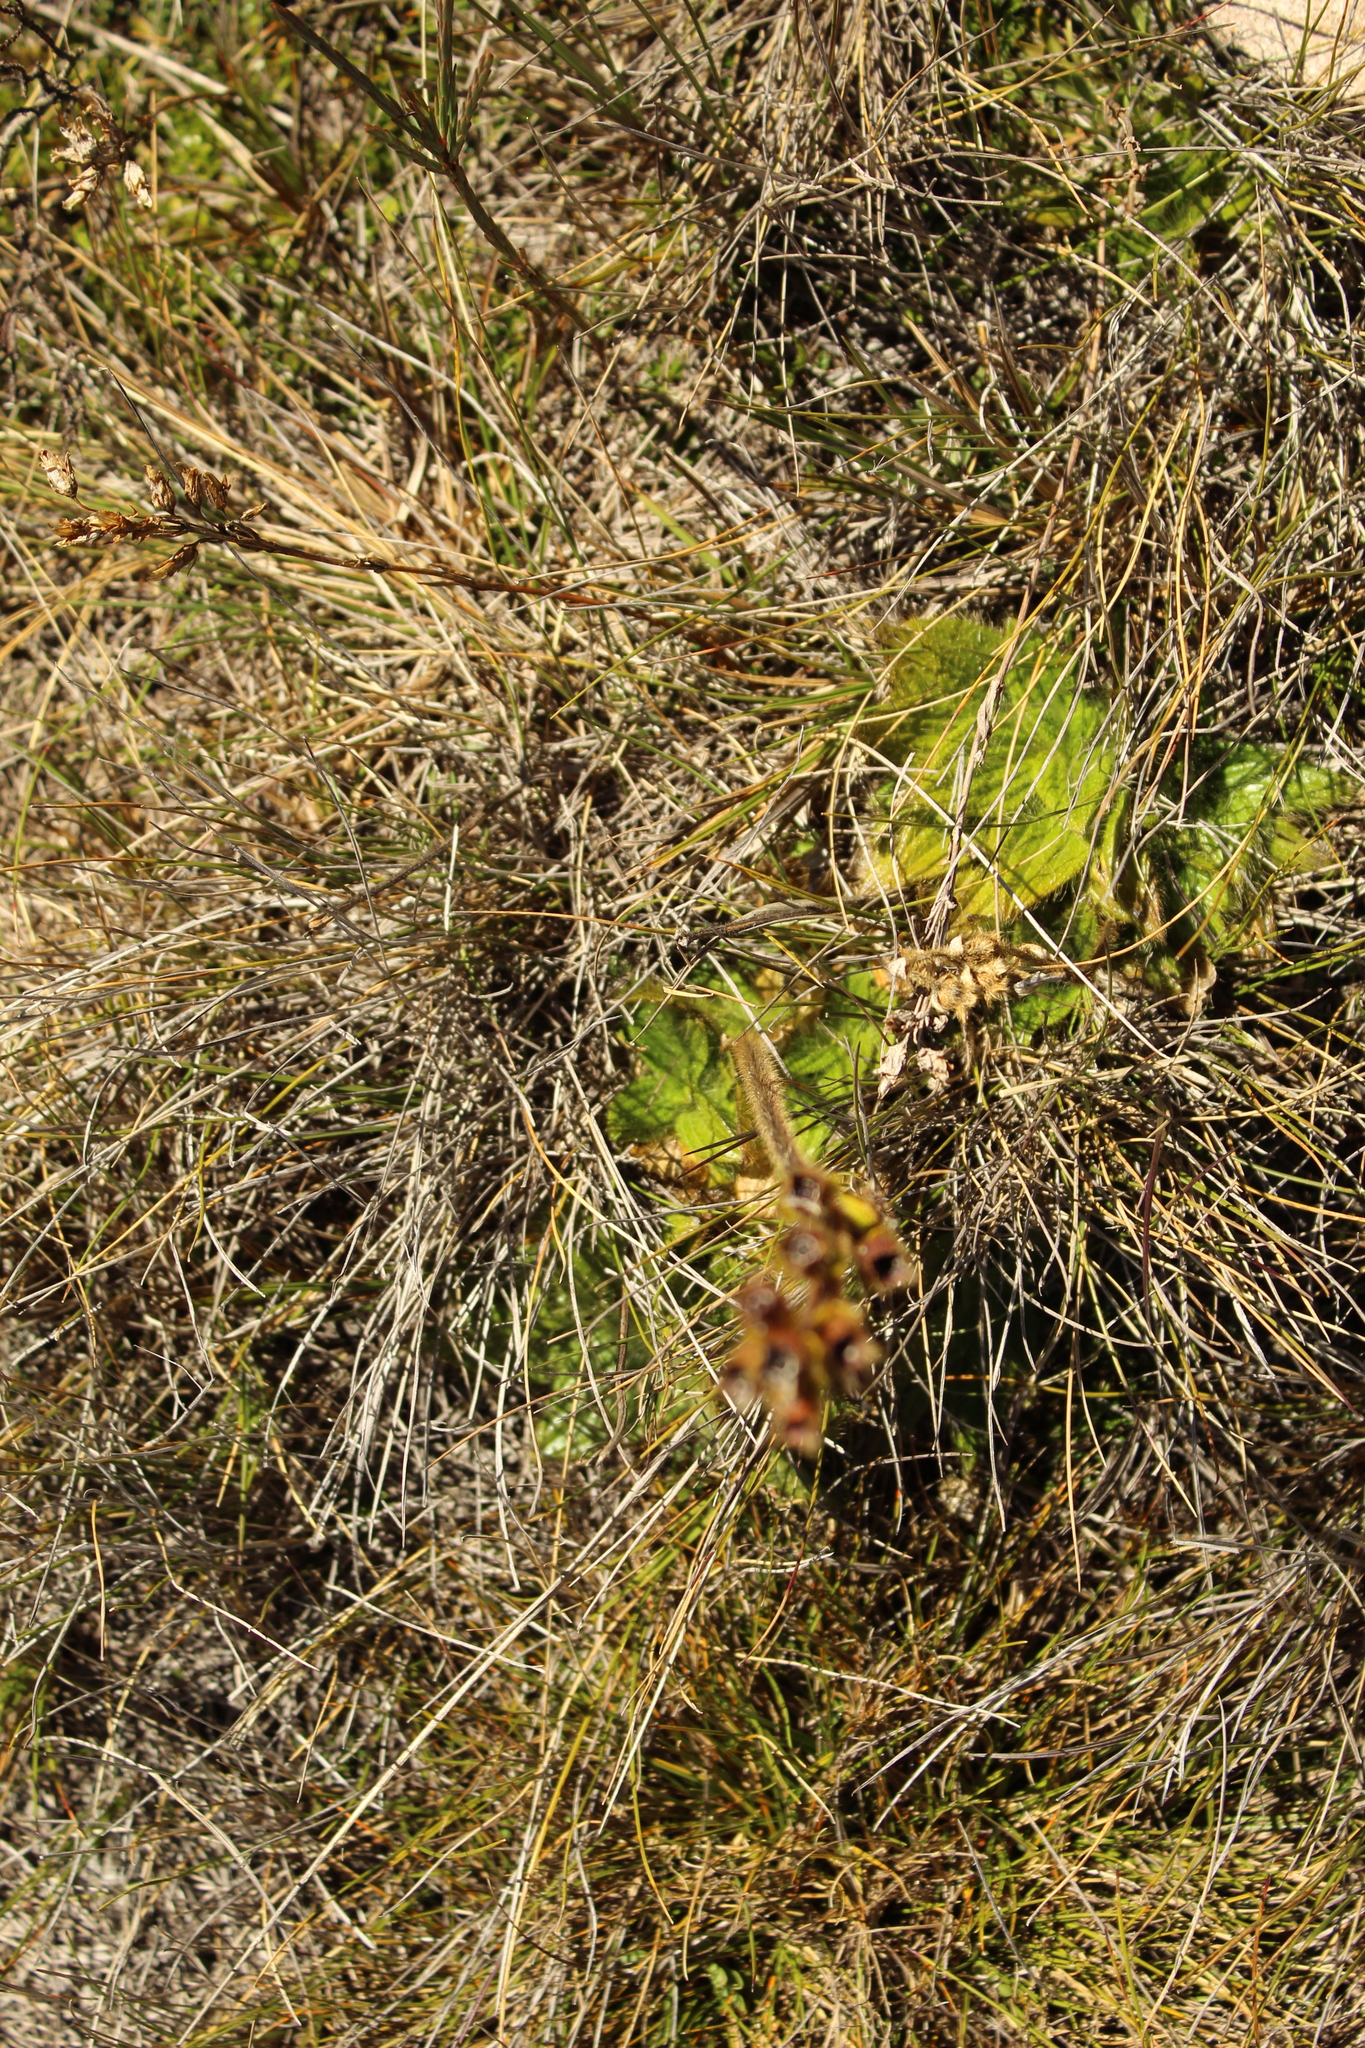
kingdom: Plantae
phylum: Tracheophyta
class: Magnoliopsida
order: Myrtales
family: Melastomataceae
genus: Castratella
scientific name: Castratella piloselloides
